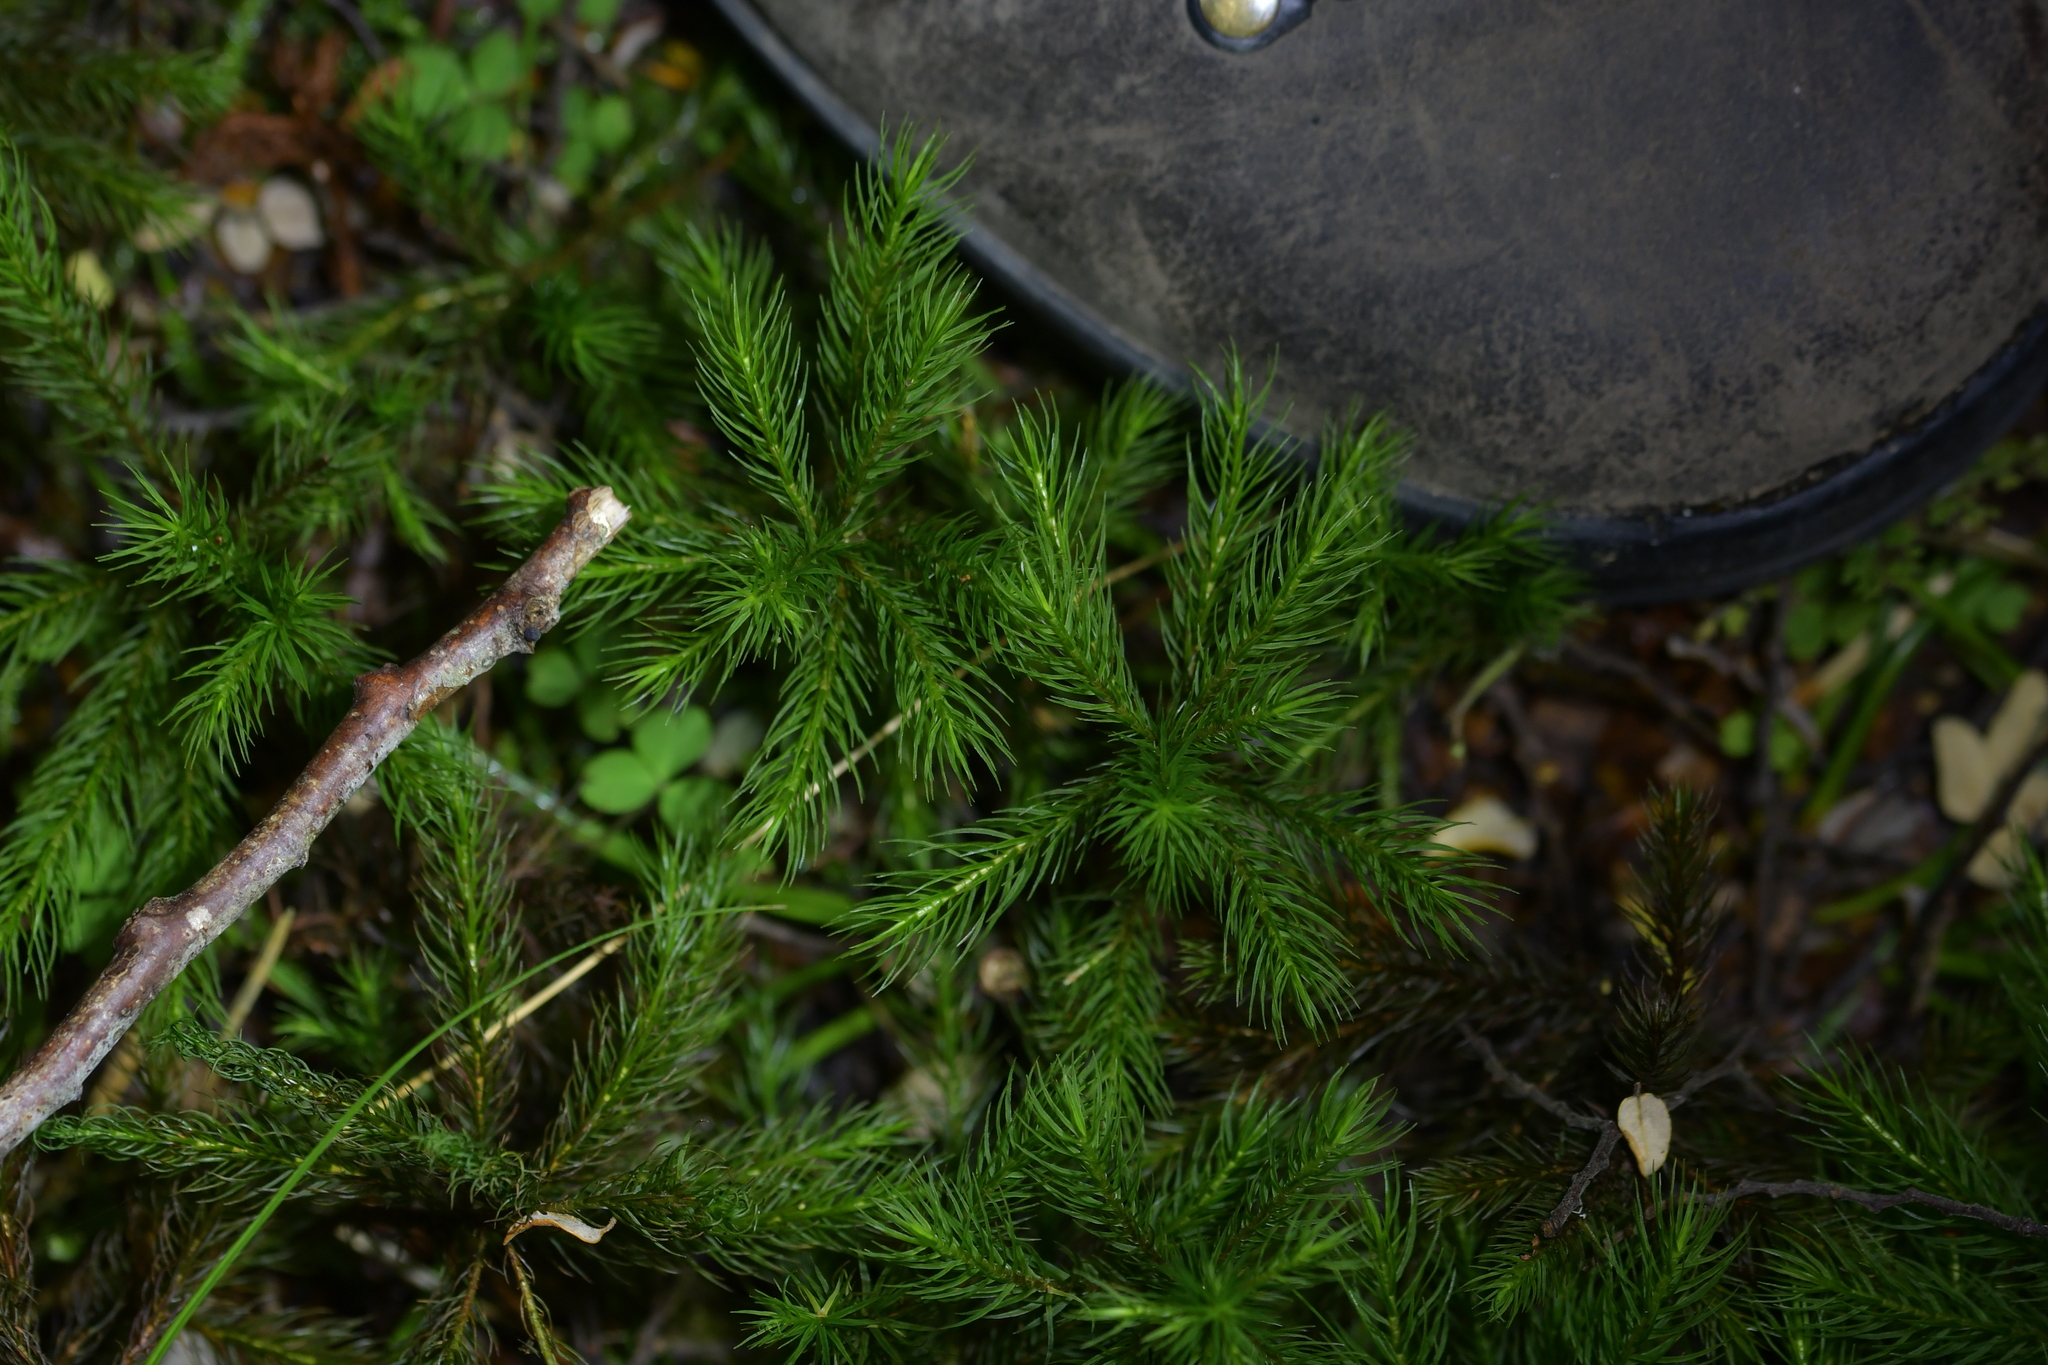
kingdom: Plantae
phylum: Bryophyta
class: Polytrichopsida
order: Polytrichales
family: Polytrichaceae
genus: Dendroligotrichum
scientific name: Dendroligotrichum tongariroense
